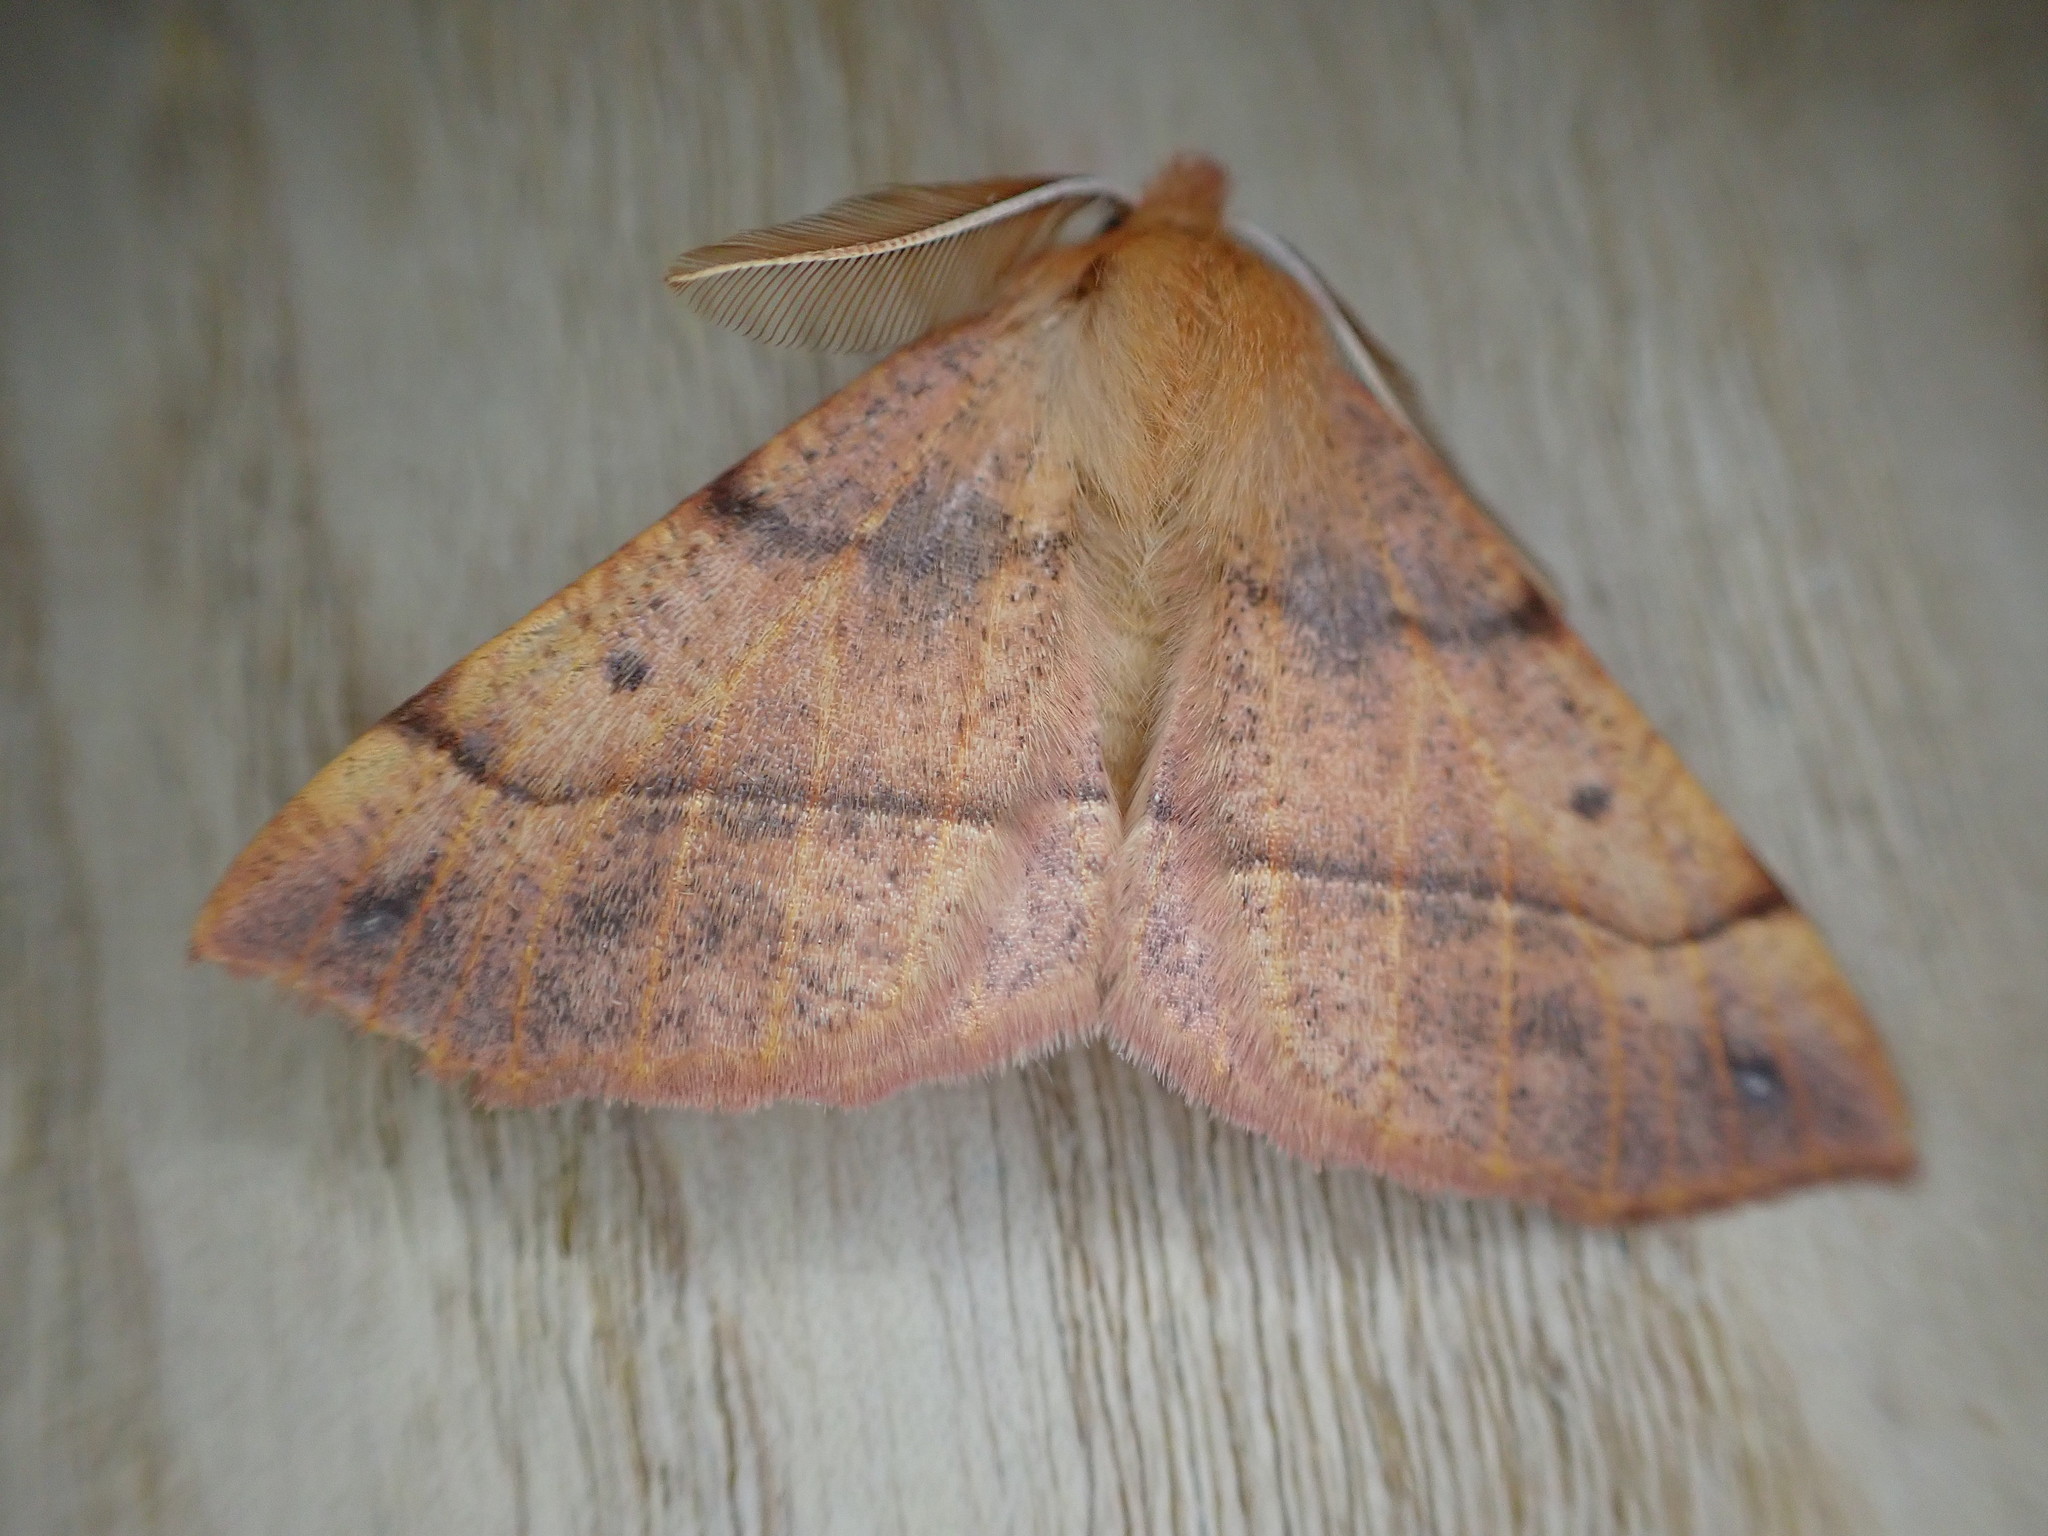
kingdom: Animalia
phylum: Arthropoda
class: Insecta
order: Lepidoptera
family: Geometridae
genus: Colotois
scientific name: Colotois pennaria
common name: Feathered thorn
